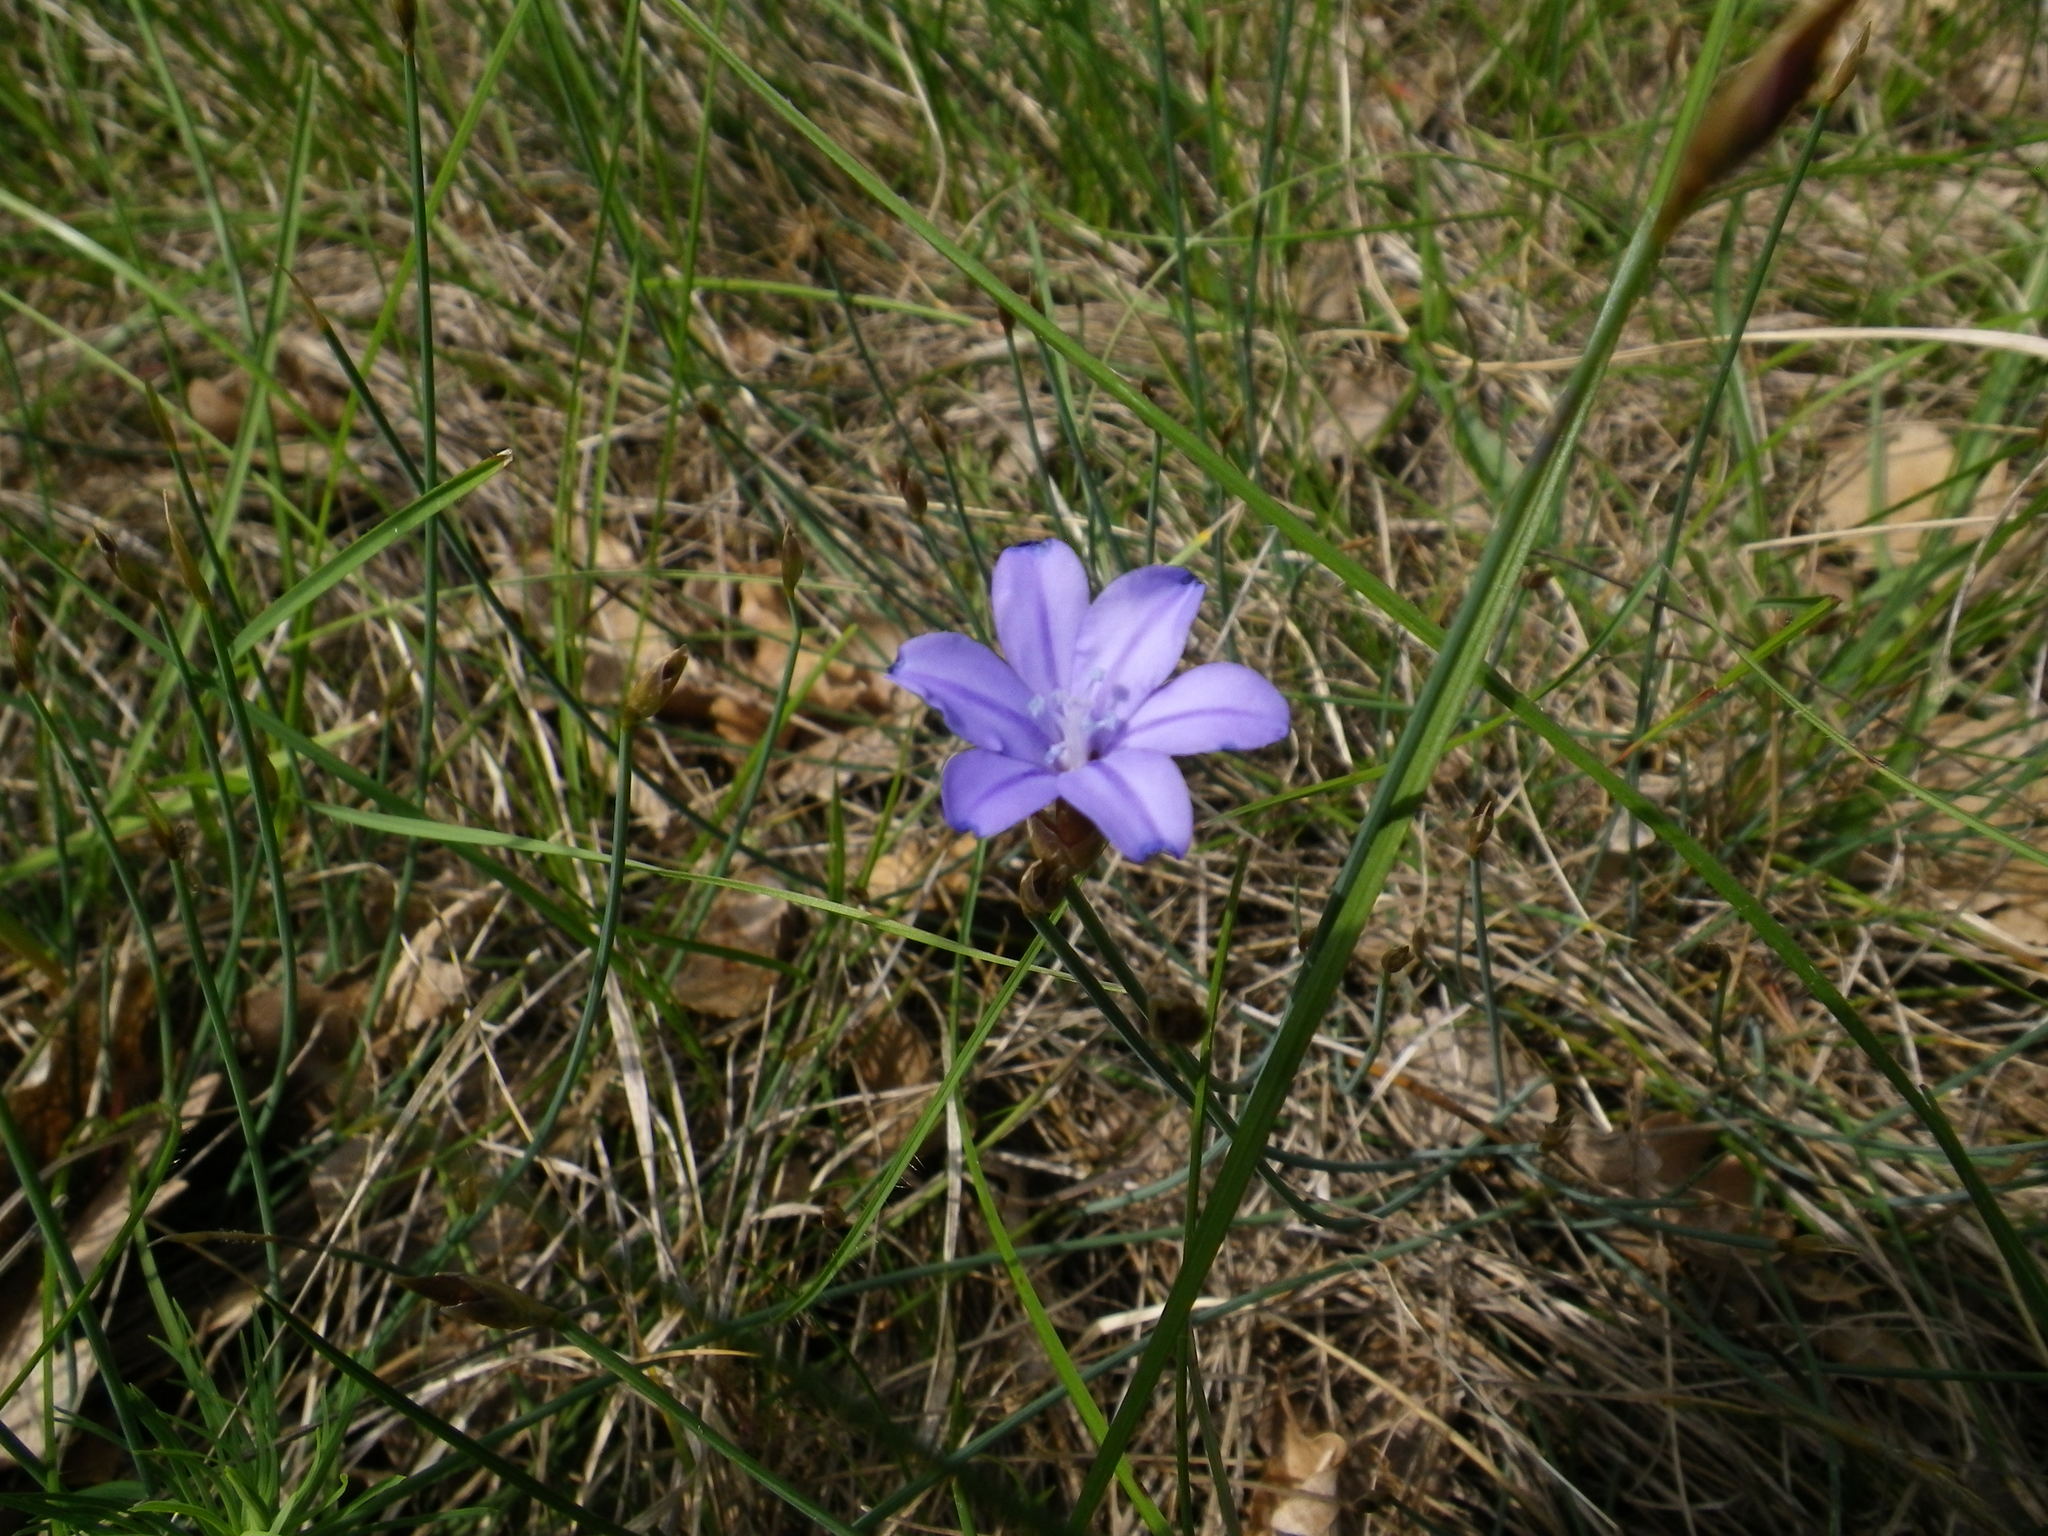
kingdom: Plantae
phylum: Tracheophyta
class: Liliopsida
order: Asparagales
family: Asparagaceae
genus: Aphyllanthes
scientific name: Aphyllanthes monspeliensis
